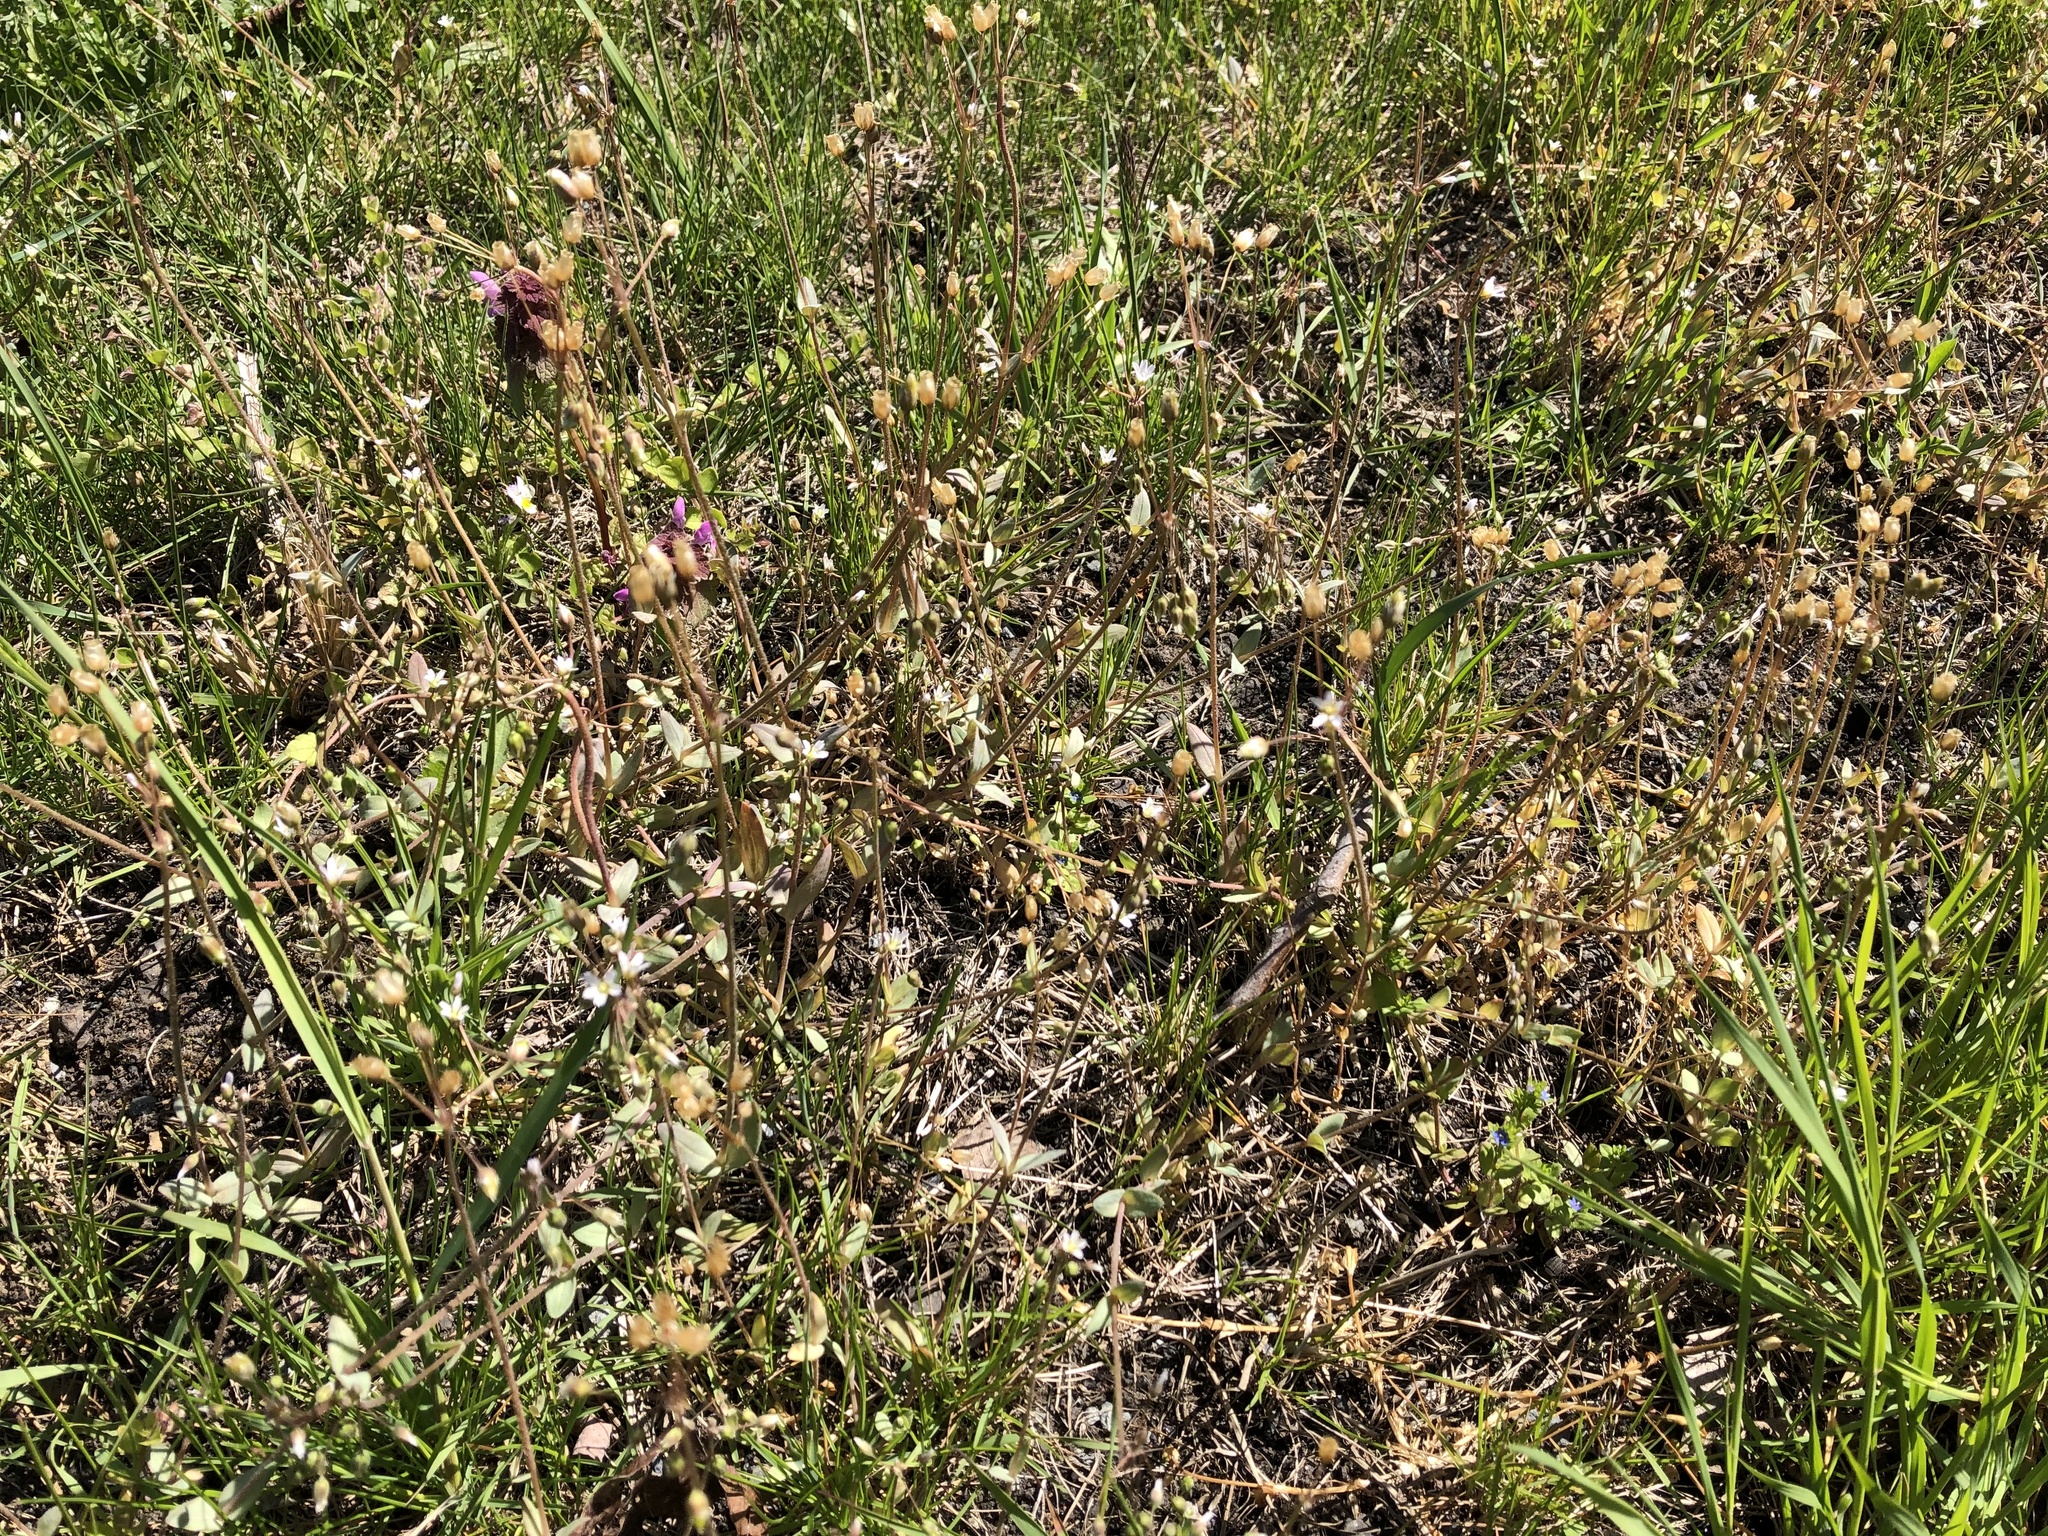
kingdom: Plantae
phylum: Tracheophyta
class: Magnoliopsida
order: Caryophyllales
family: Caryophyllaceae
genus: Holosteum
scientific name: Holosteum umbellatum
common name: Jagged chickweed
